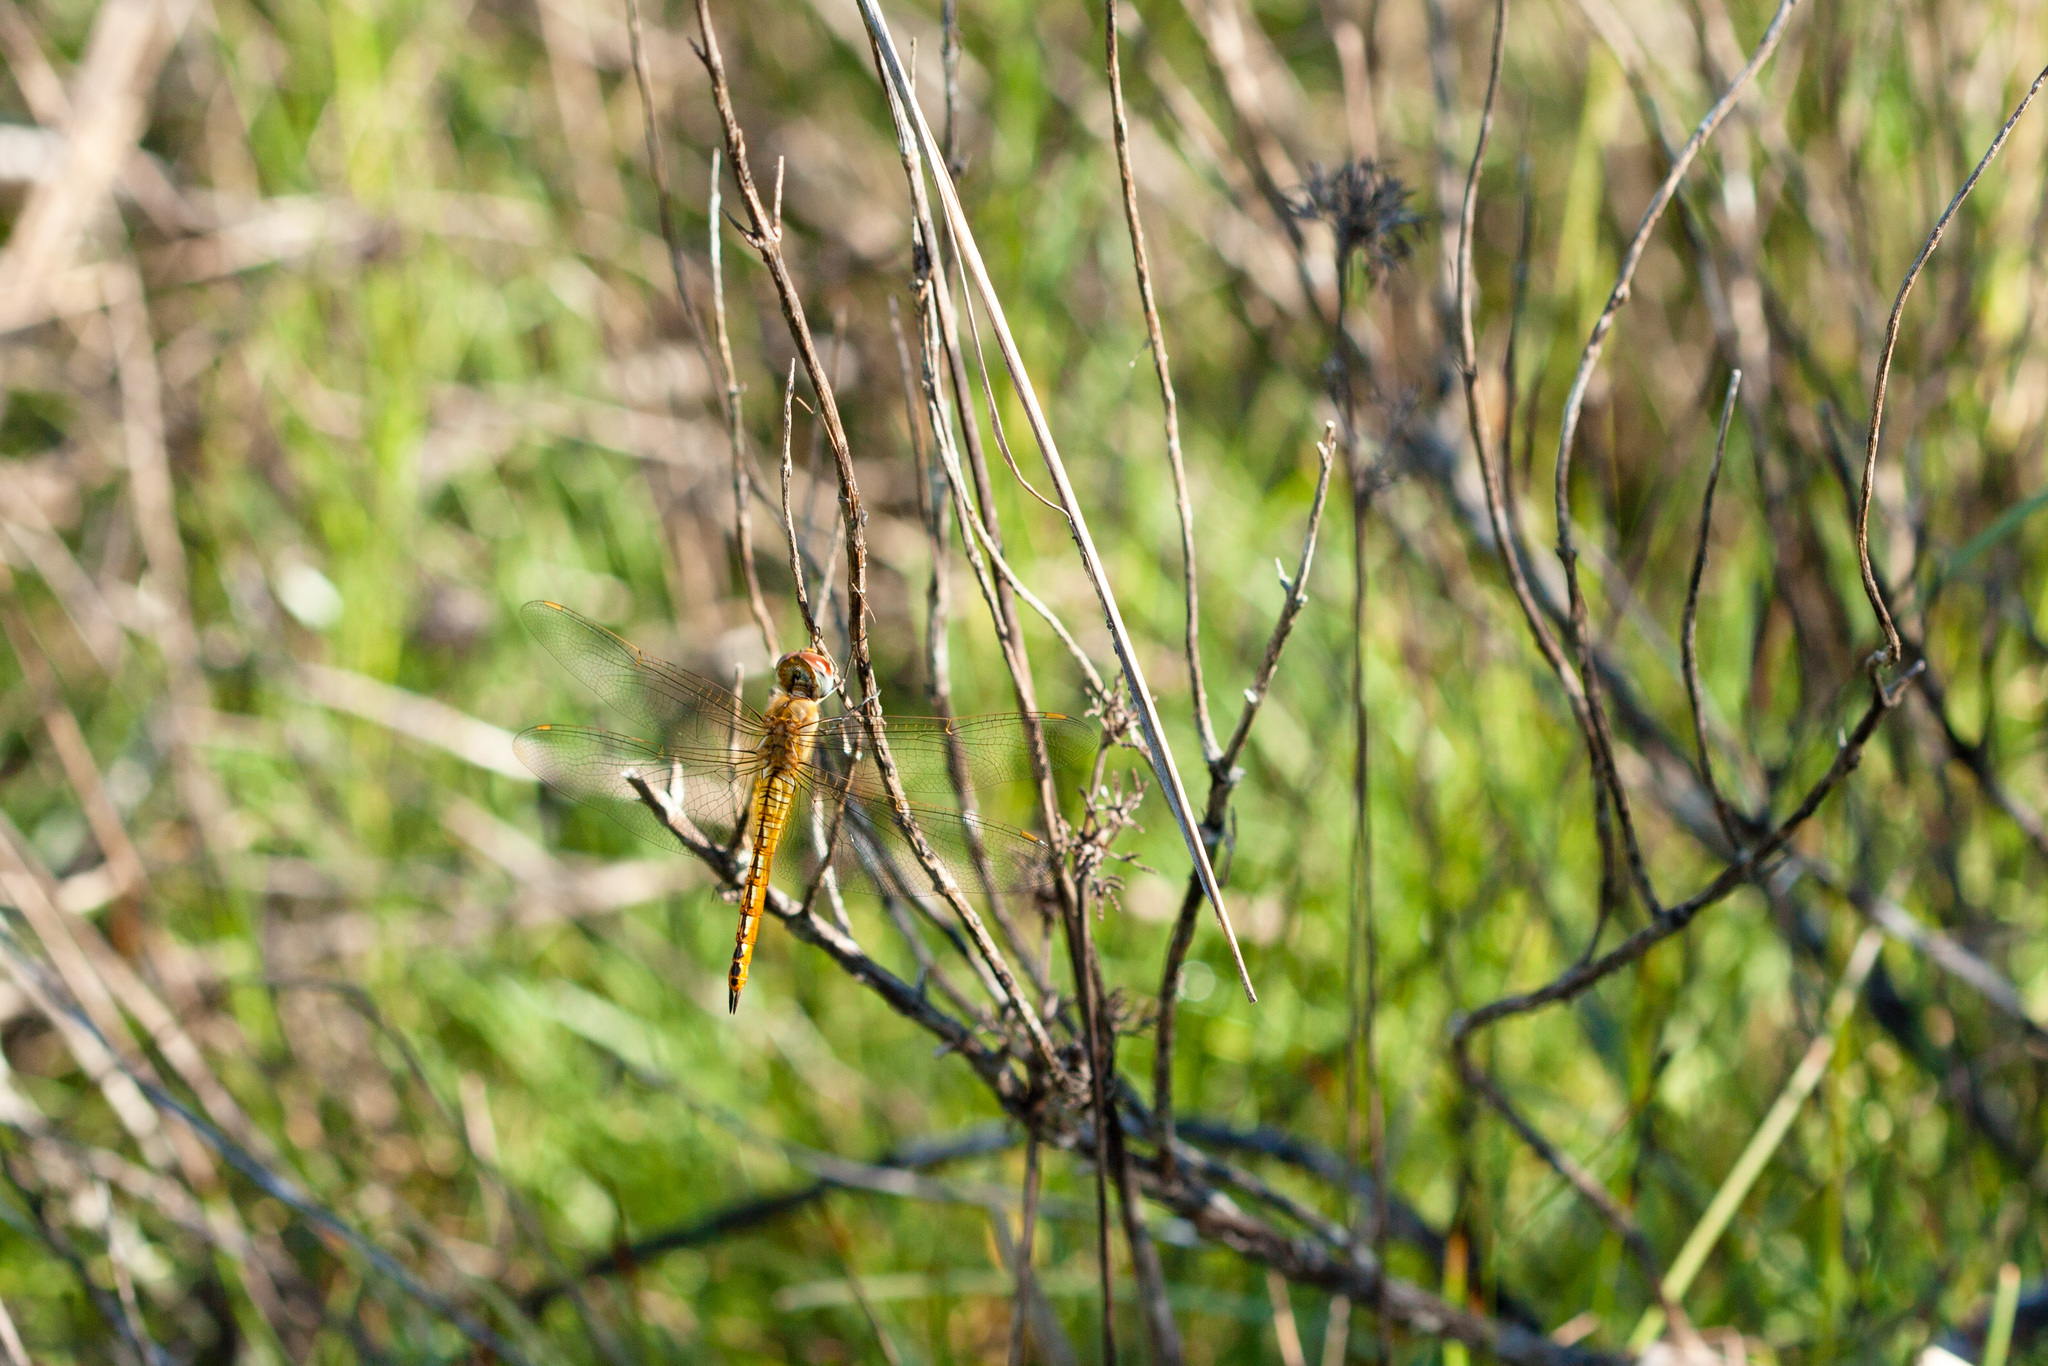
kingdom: Animalia
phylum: Arthropoda
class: Insecta
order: Odonata
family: Libellulidae
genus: Pantala
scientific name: Pantala flavescens
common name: Wandering glider
